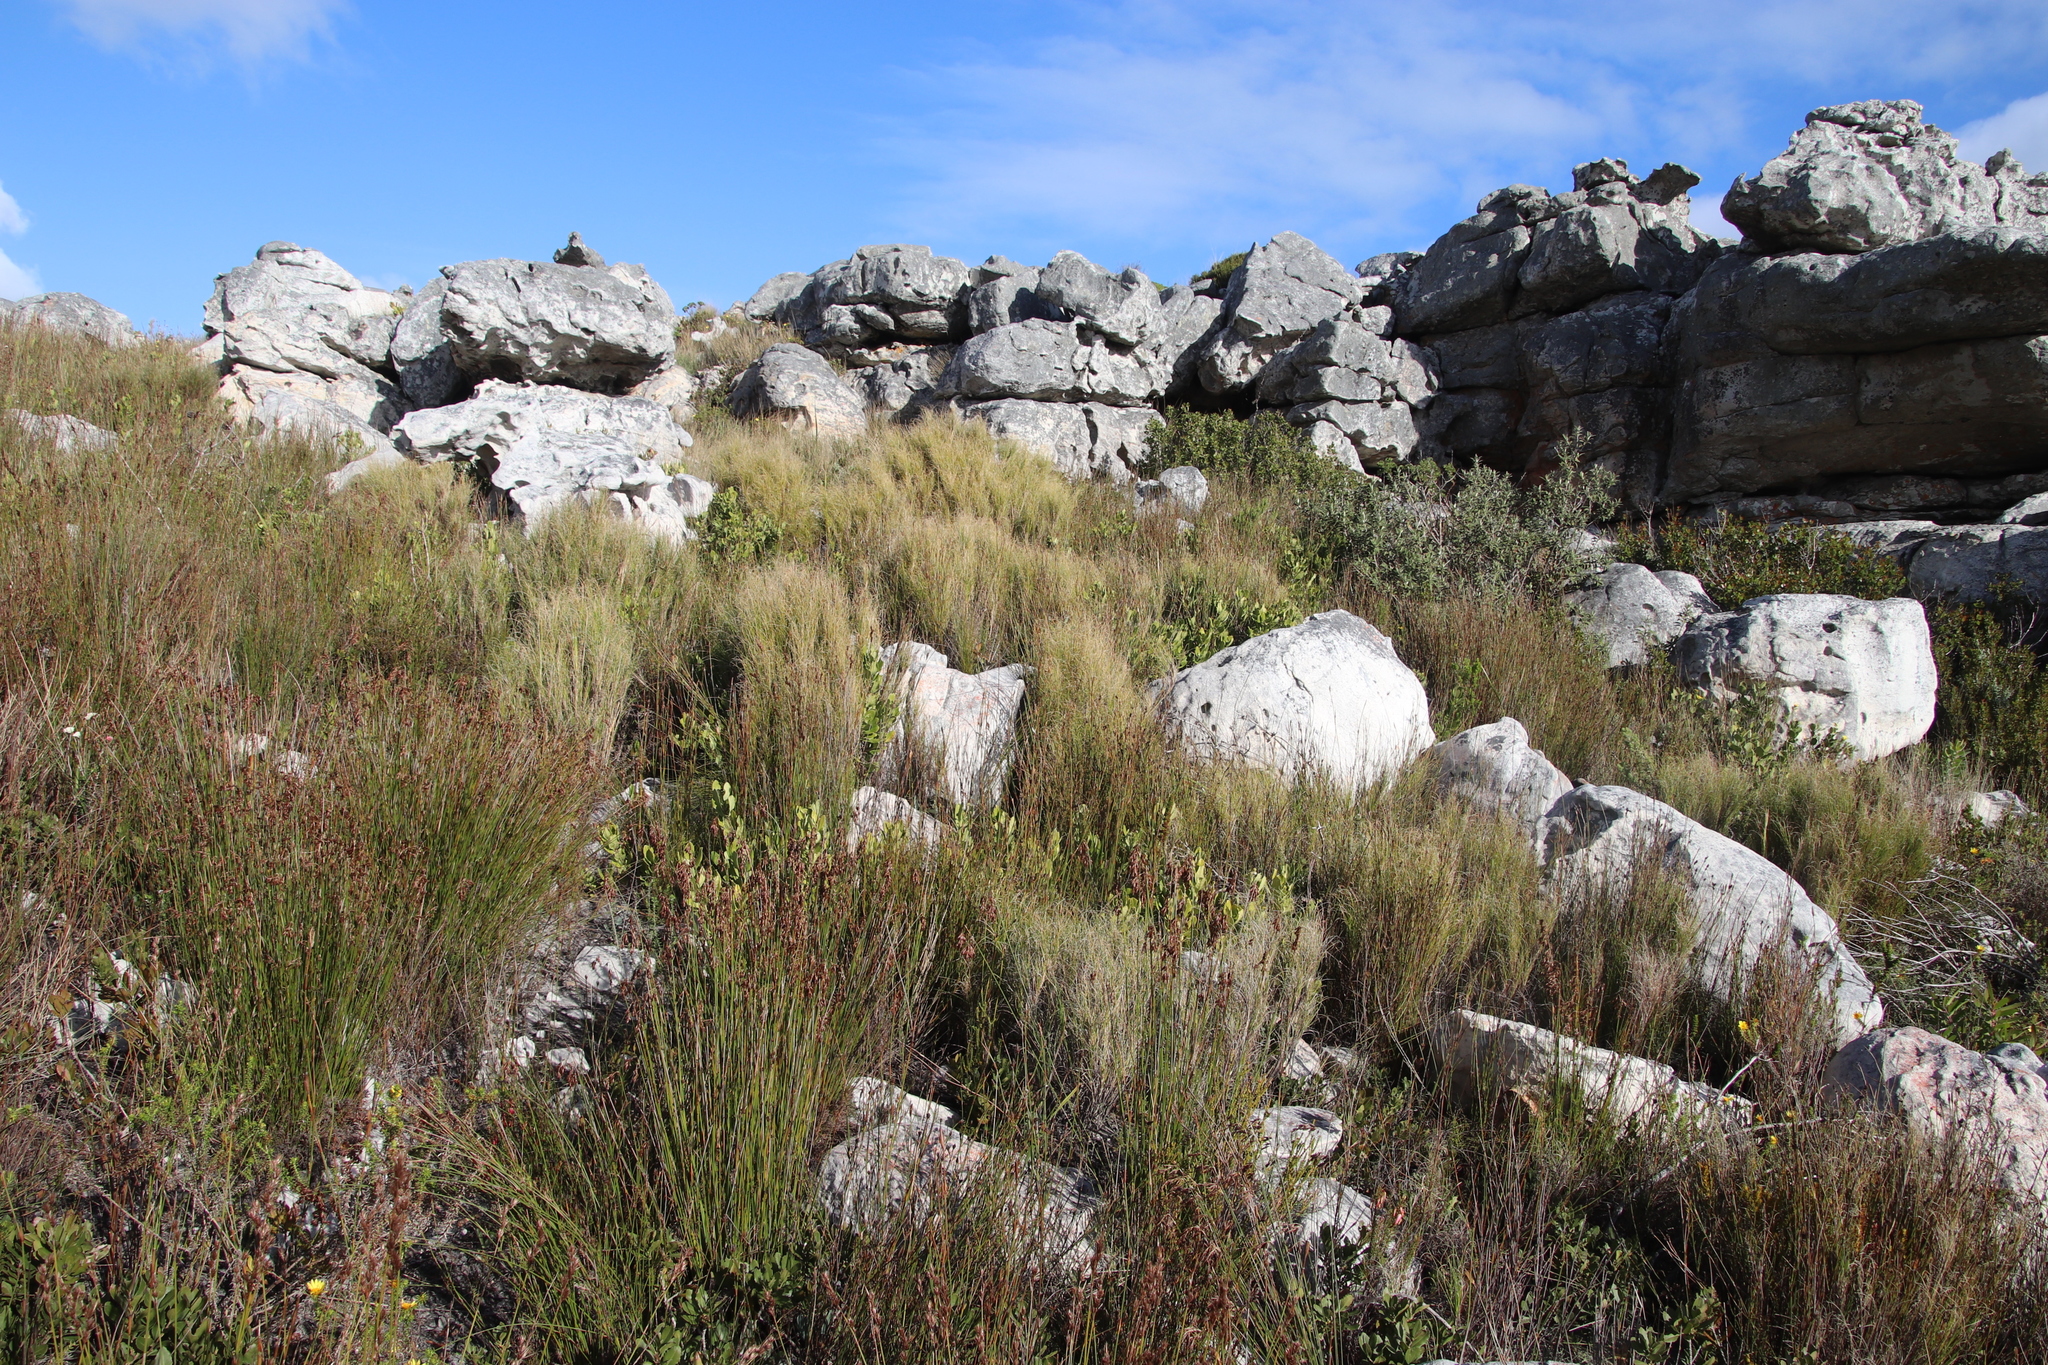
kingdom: Plantae
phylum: Tracheophyta
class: Liliopsida
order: Poales
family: Poaceae
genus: Pseudopentameris
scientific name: Pseudopentameris macrantha
